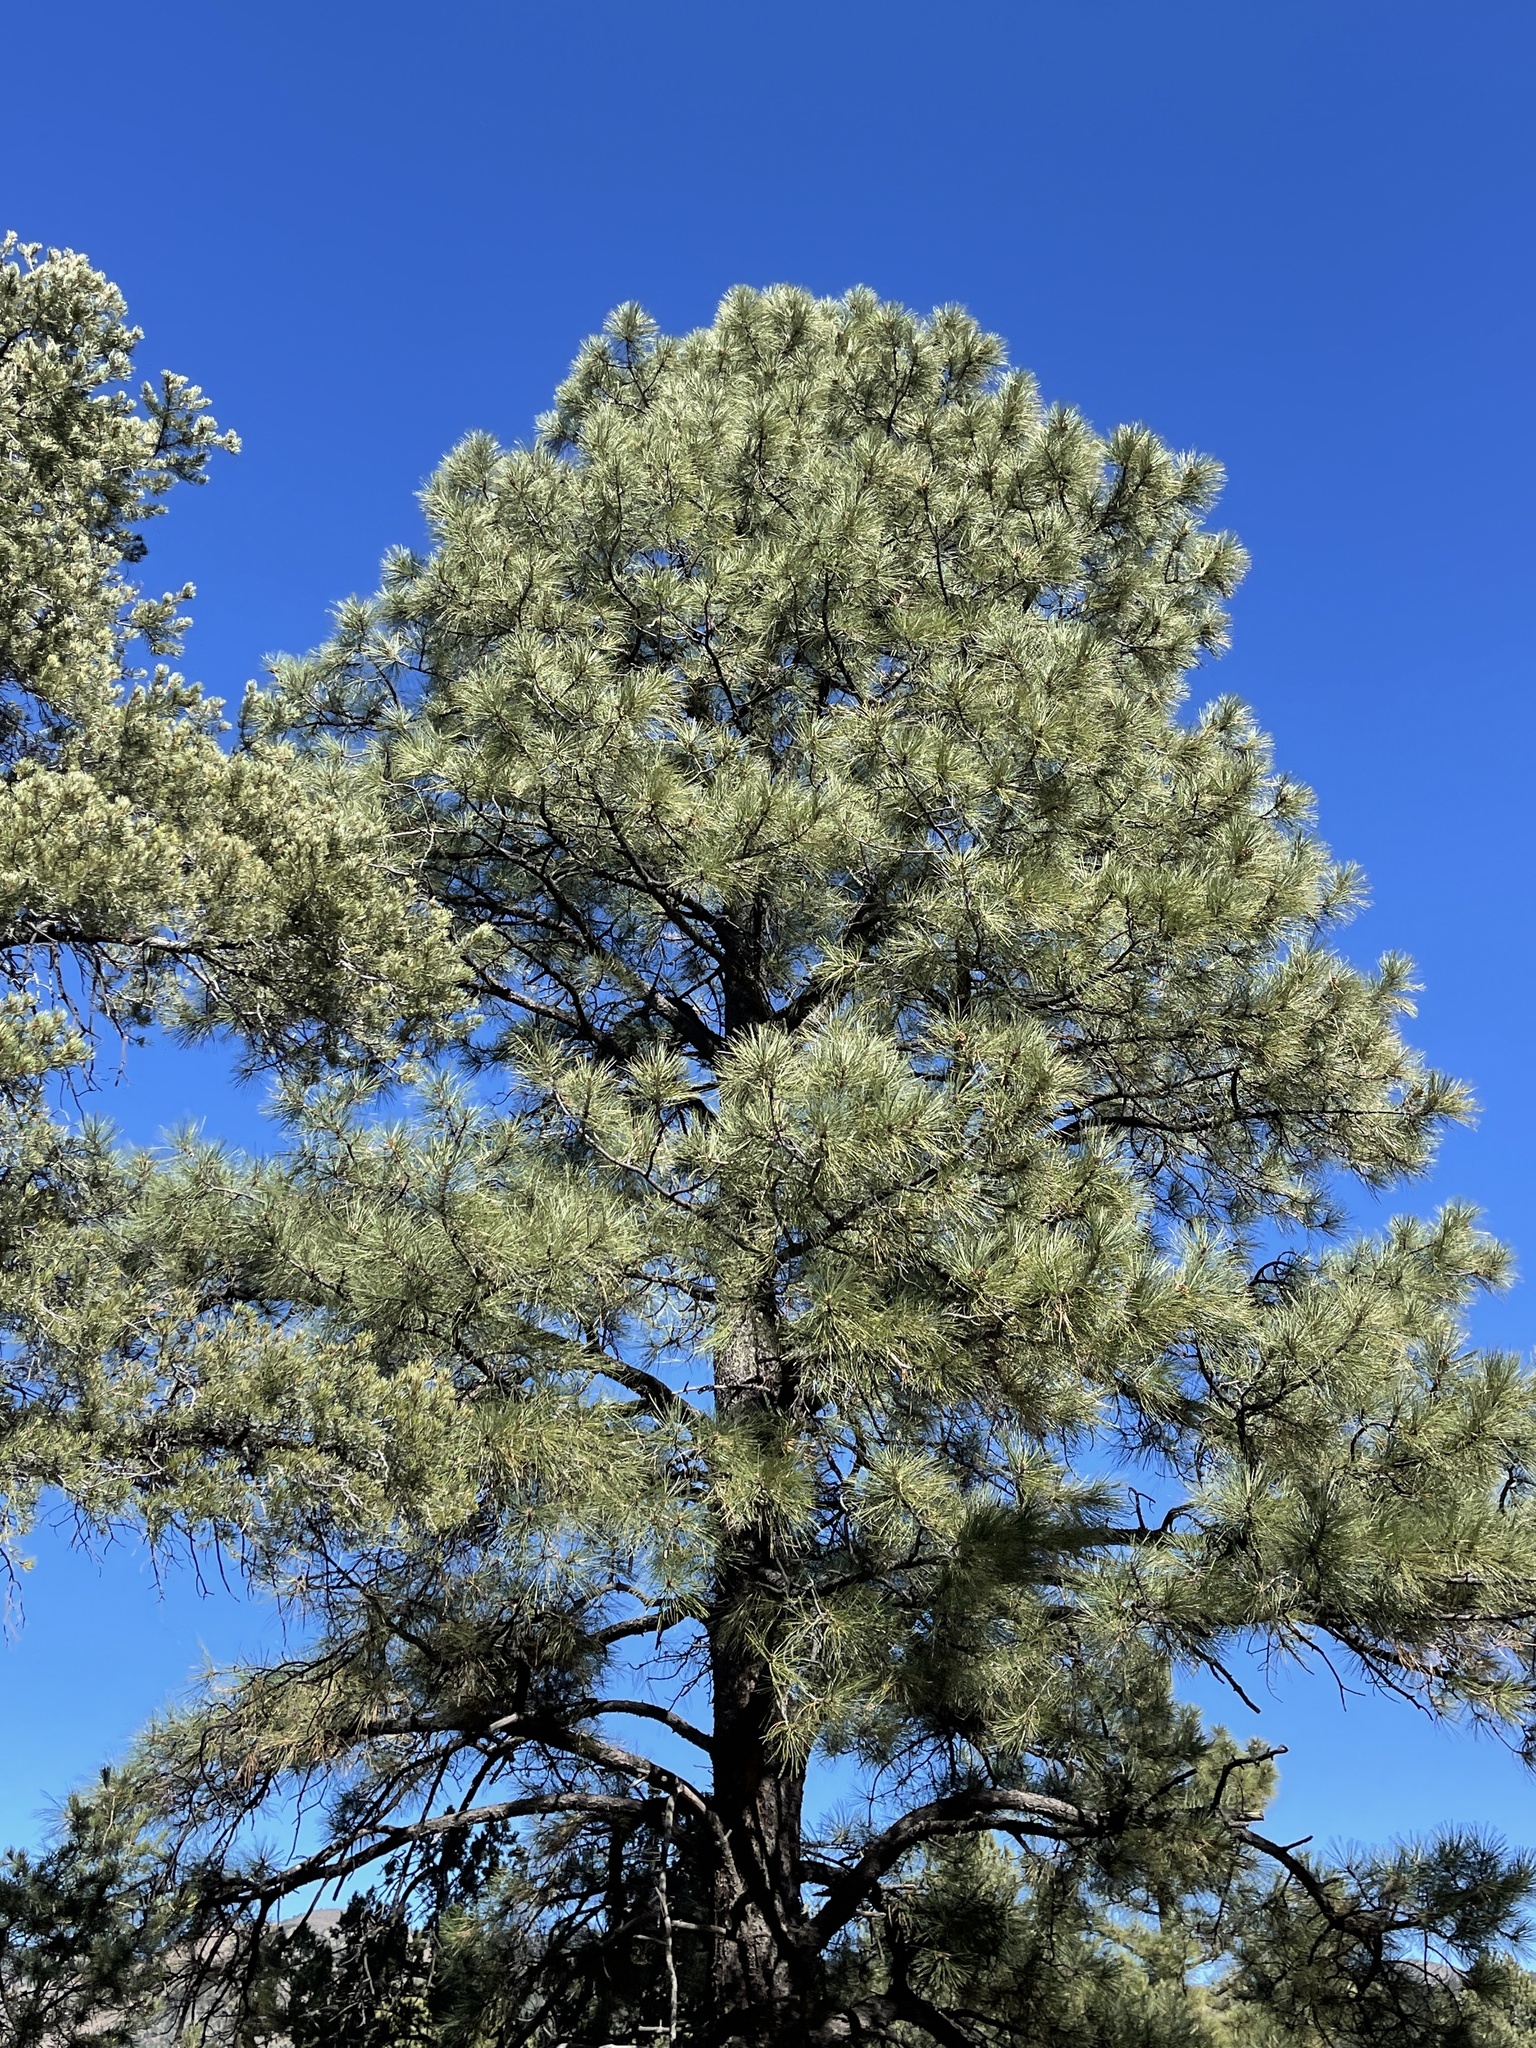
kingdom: Plantae
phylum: Tracheophyta
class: Pinopsida
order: Pinales
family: Pinaceae
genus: Pinus
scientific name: Pinus ponderosa
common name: Western yellow-pine
